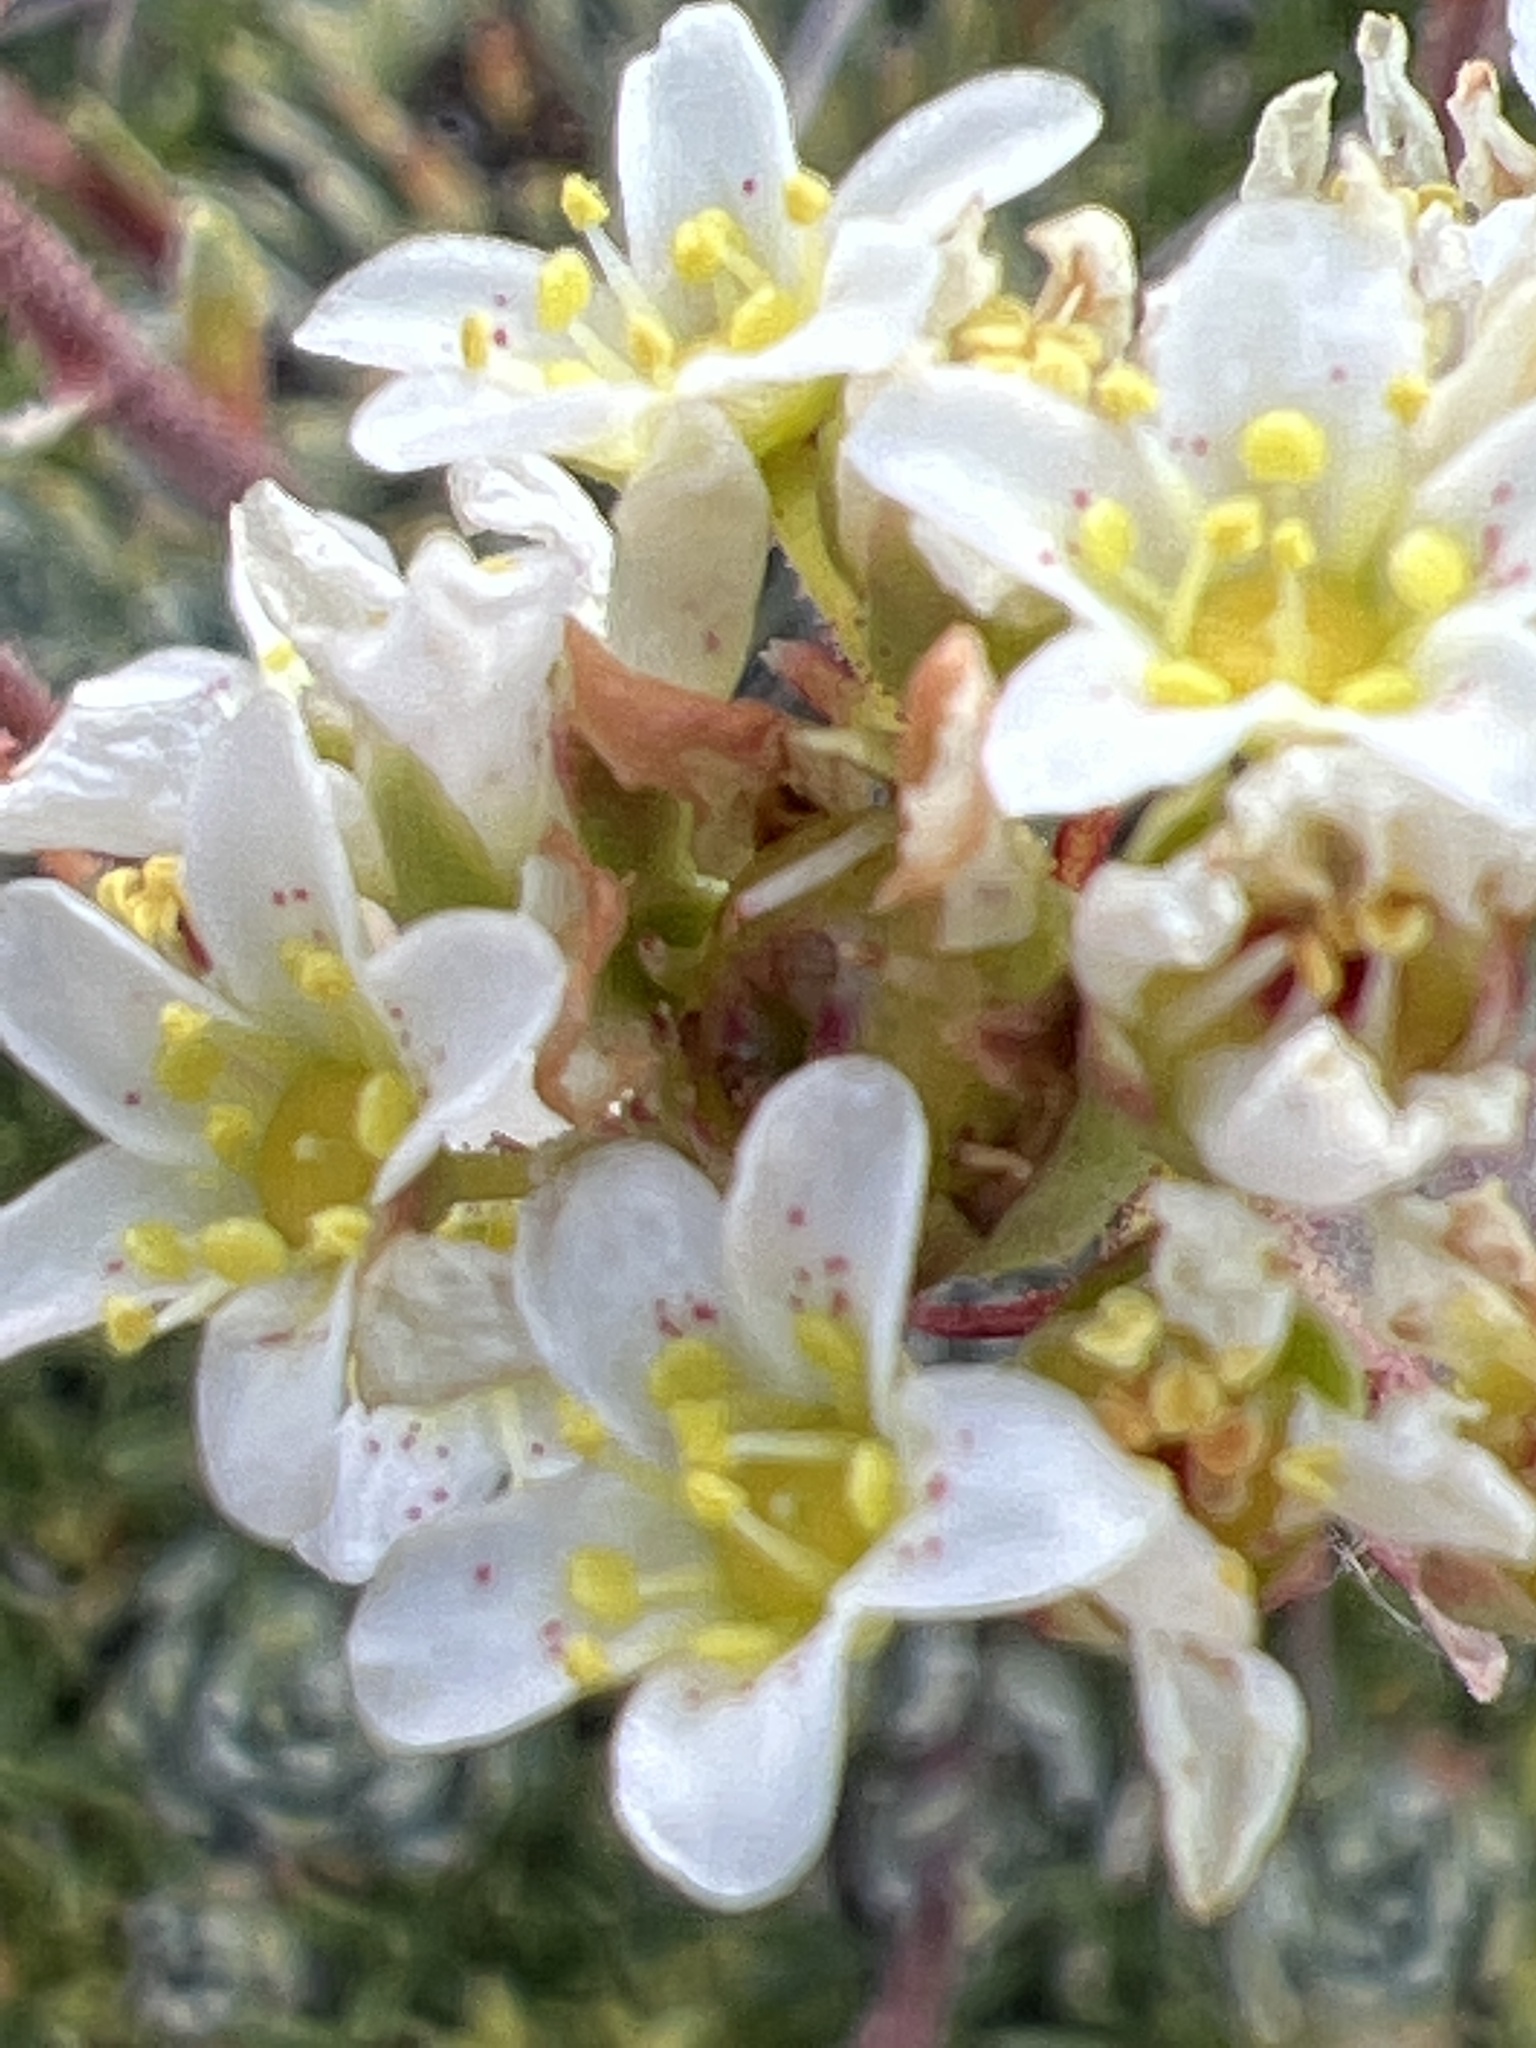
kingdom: Plantae
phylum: Tracheophyta
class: Magnoliopsida
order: Saxifragales
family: Saxifragaceae
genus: Saxifraga
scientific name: Saxifraga paniculata
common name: Livelong saxifrage
